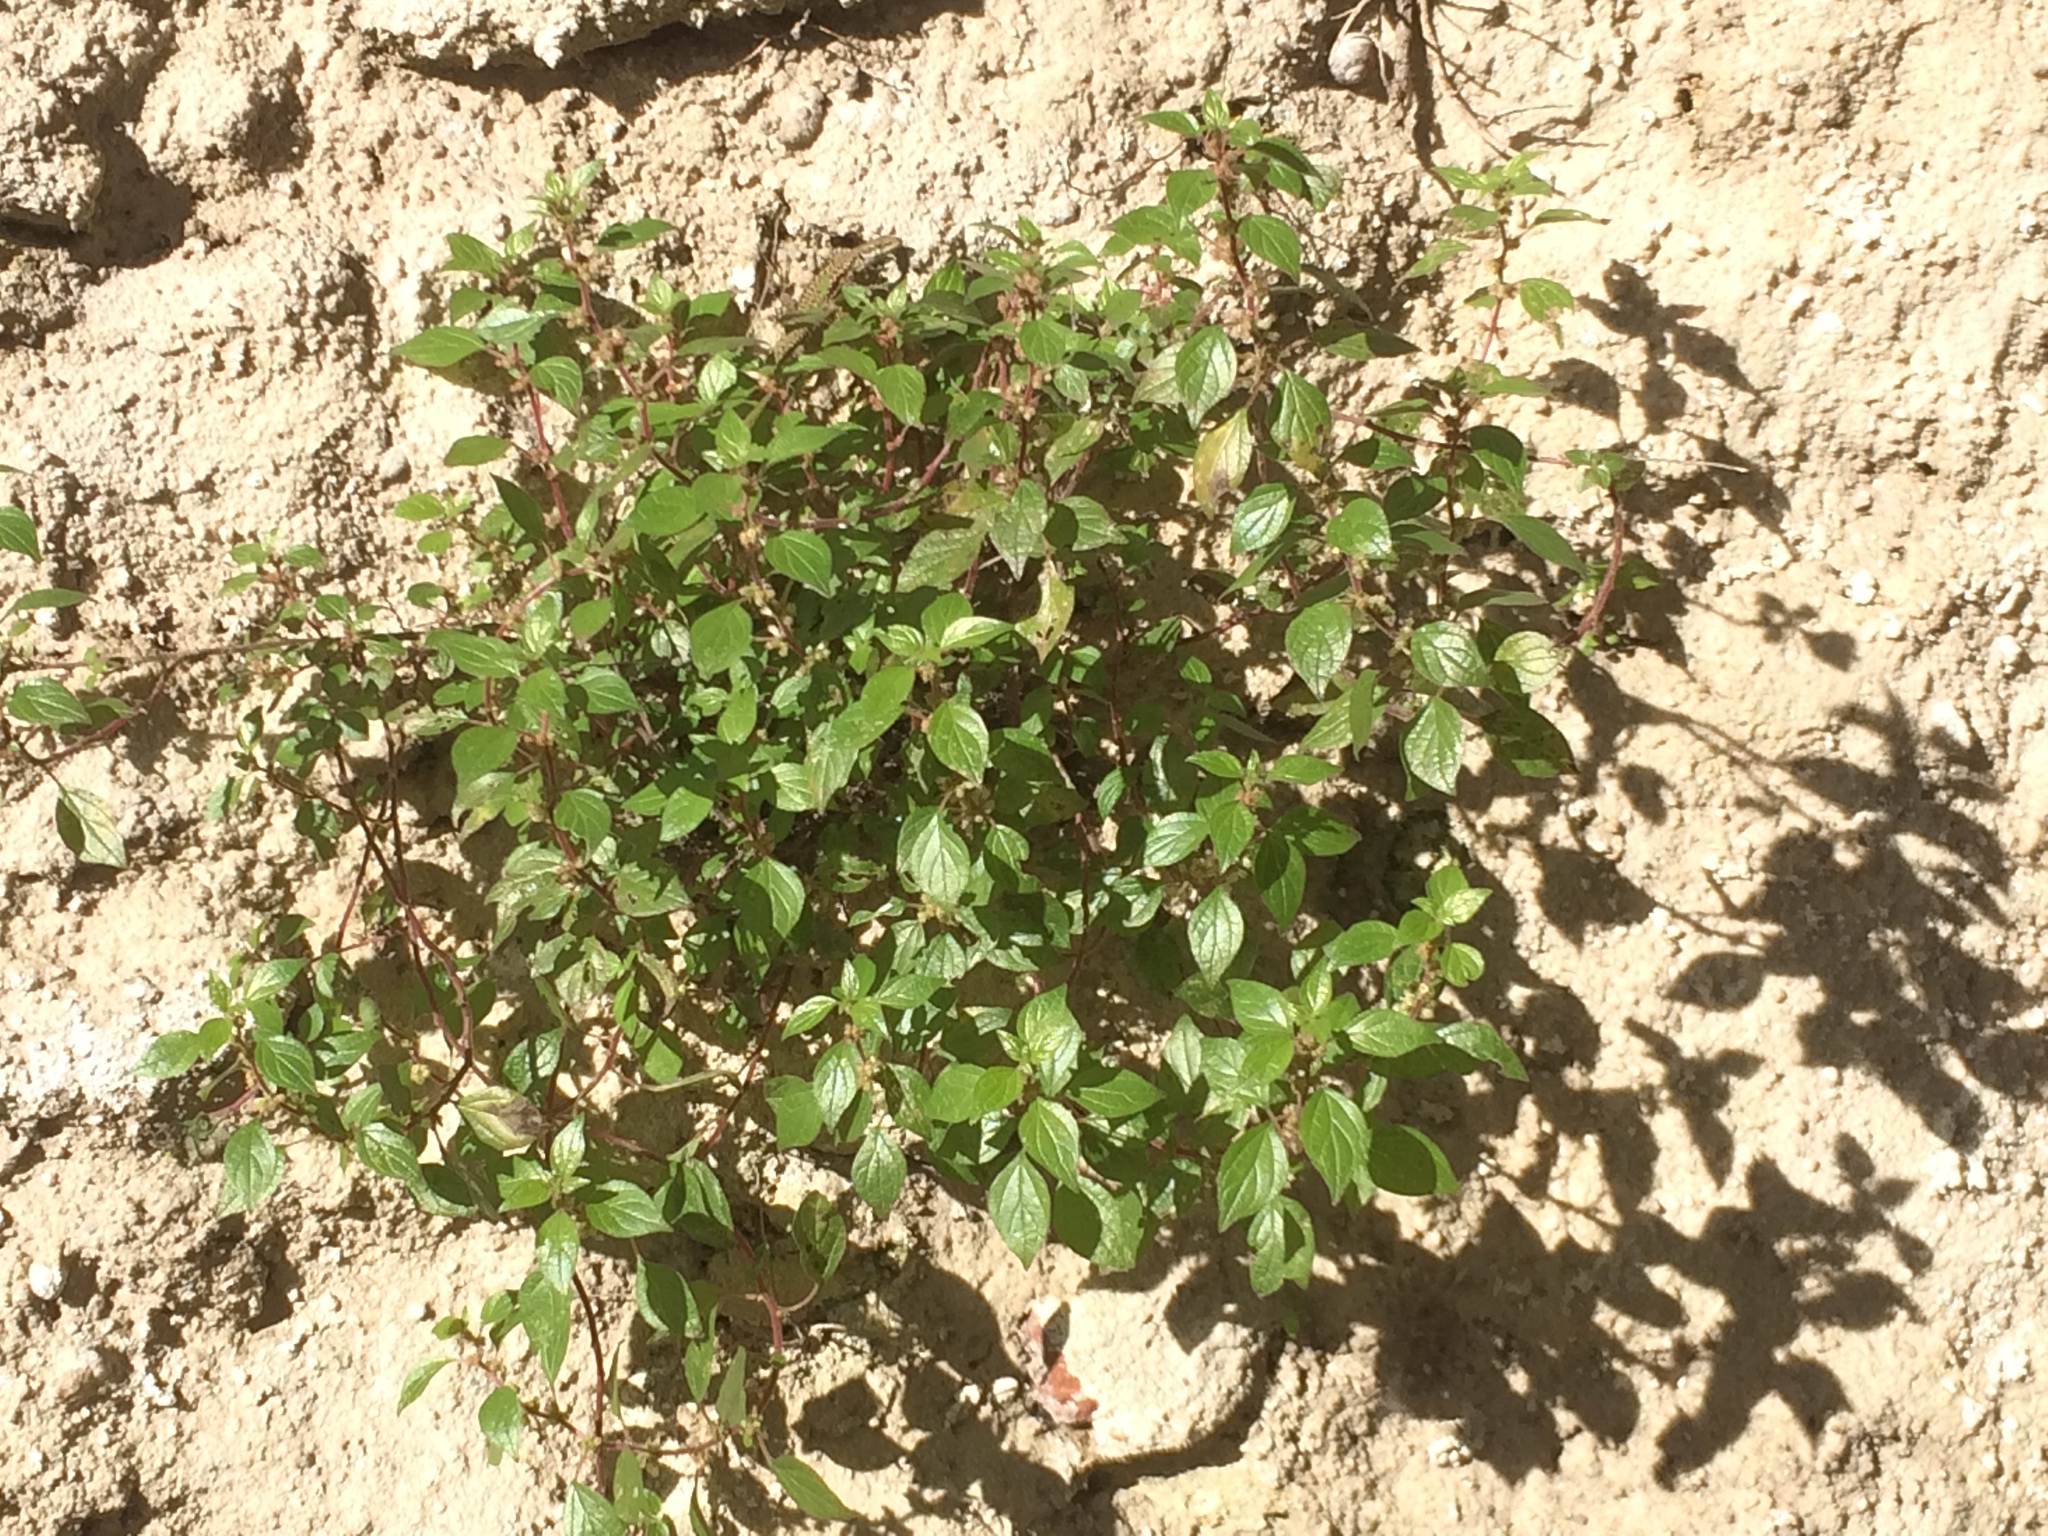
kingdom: Plantae
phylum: Tracheophyta
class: Magnoliopsida
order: Rosales
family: Urticaceae
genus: Parietaria
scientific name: Parietaria judaica
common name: Pellitory-of-the-wall
